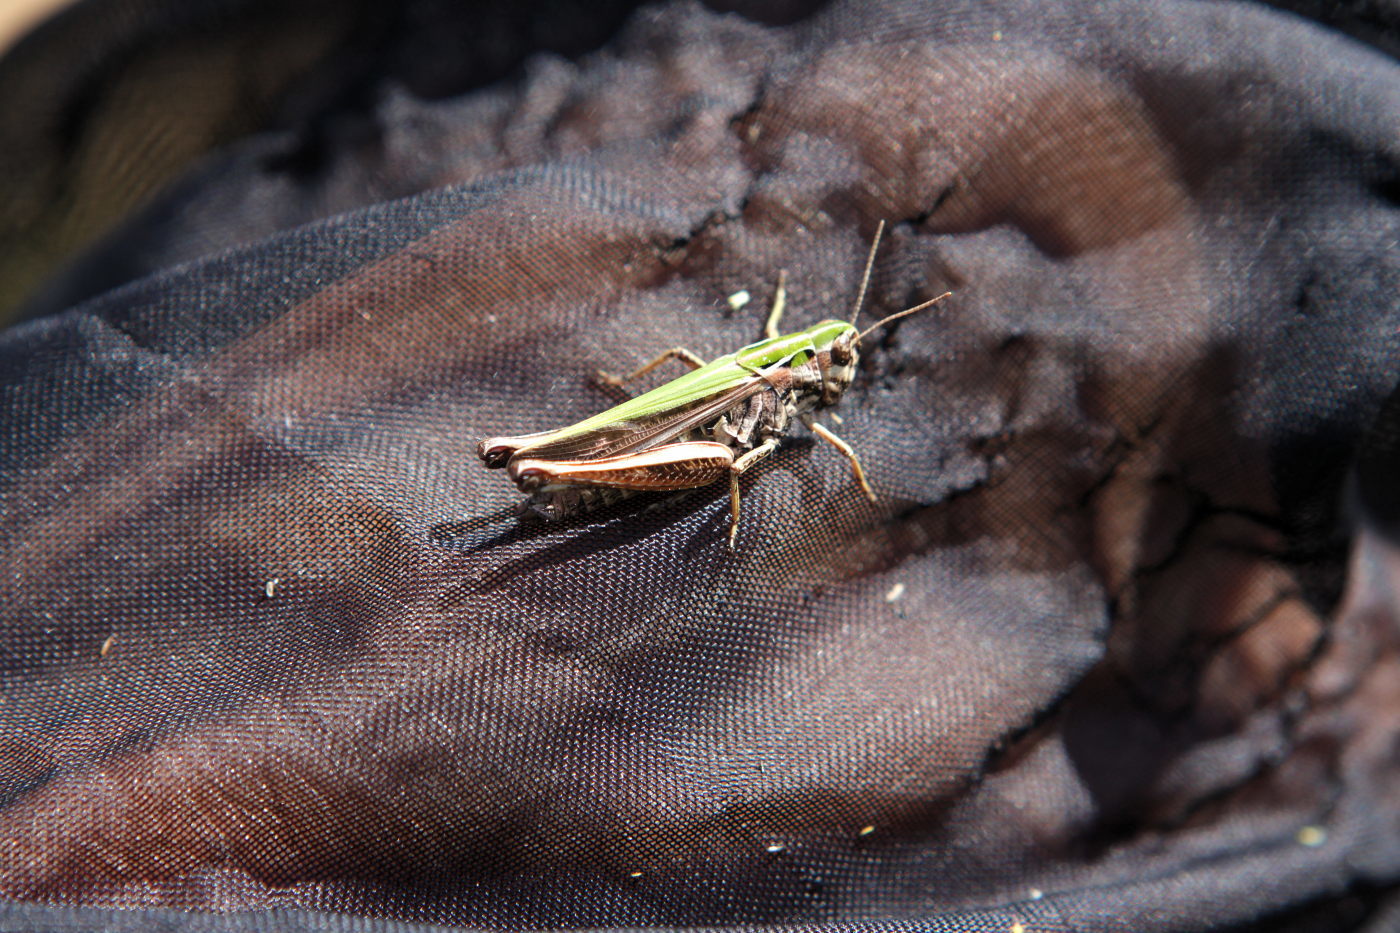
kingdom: Animalia
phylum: Arthropoda
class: Insecta
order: Orthoptera
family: Acrididae
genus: Omocestus
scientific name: Omocestus viridulus
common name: Common green grasshopper
